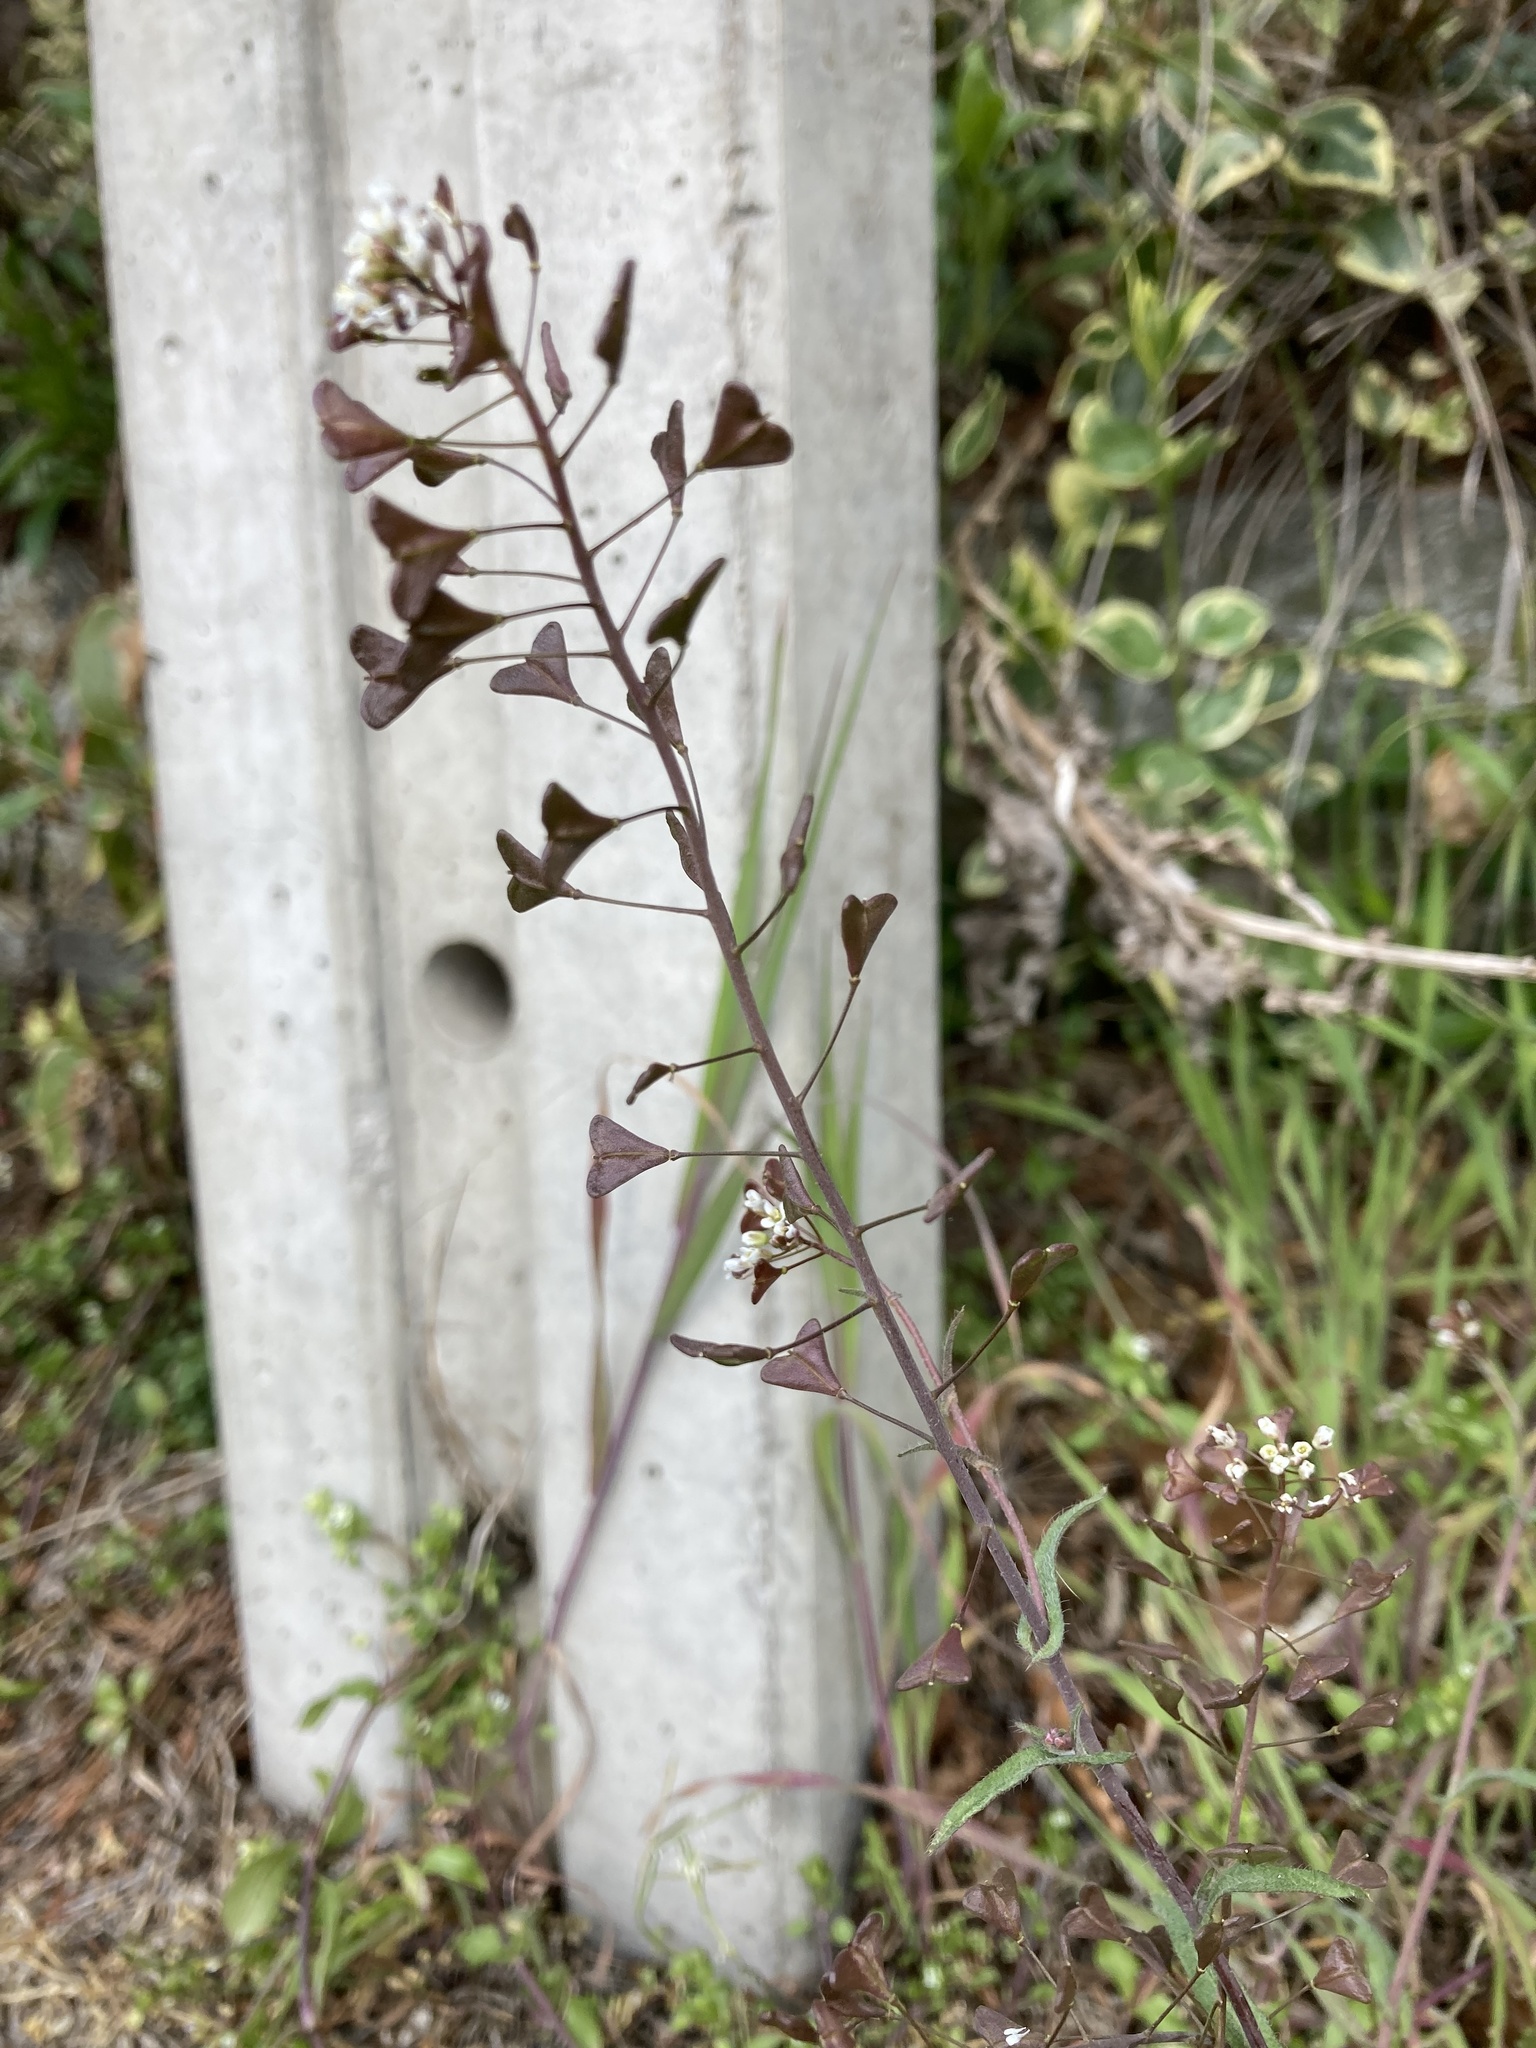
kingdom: Plantae
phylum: Tracheophyta
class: Magnoliopsida
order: Brassicales
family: Brassicaceae
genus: Capsella
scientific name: Capsella bursa-pastoris
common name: Shepherd's purse
